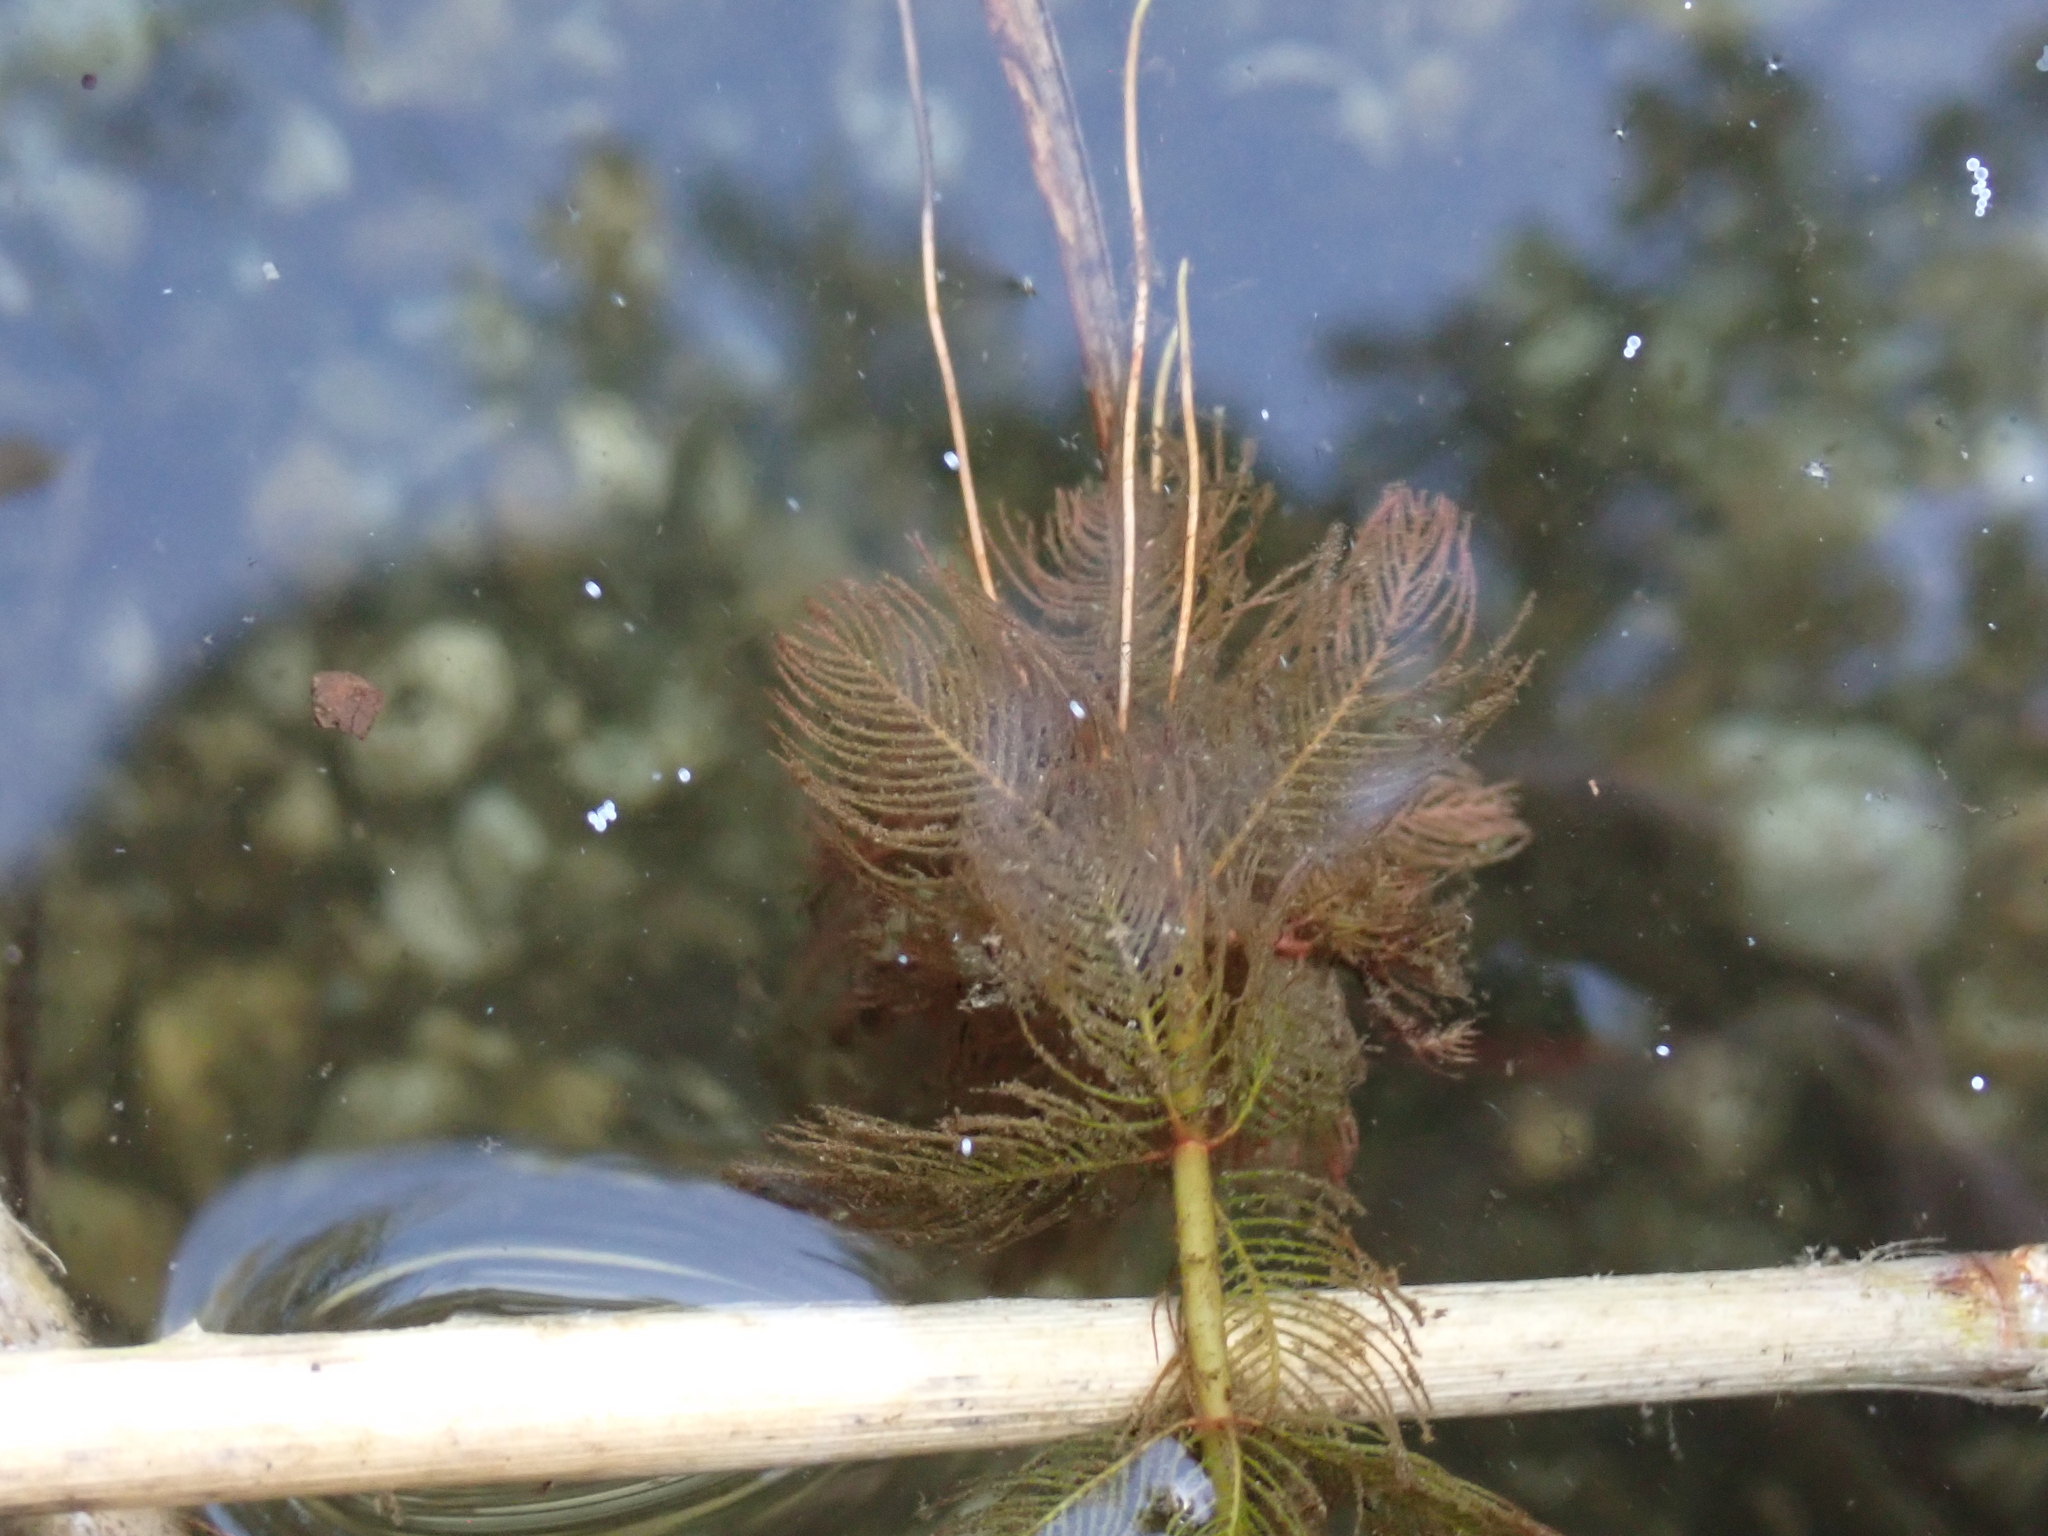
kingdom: Plantae
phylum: Tracheophyta
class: Magnoliopsida
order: Saxifragales
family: Haloragaceae
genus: Myriophyllum
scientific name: Myriophyllum spicatum
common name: Spiked water-milfoil
